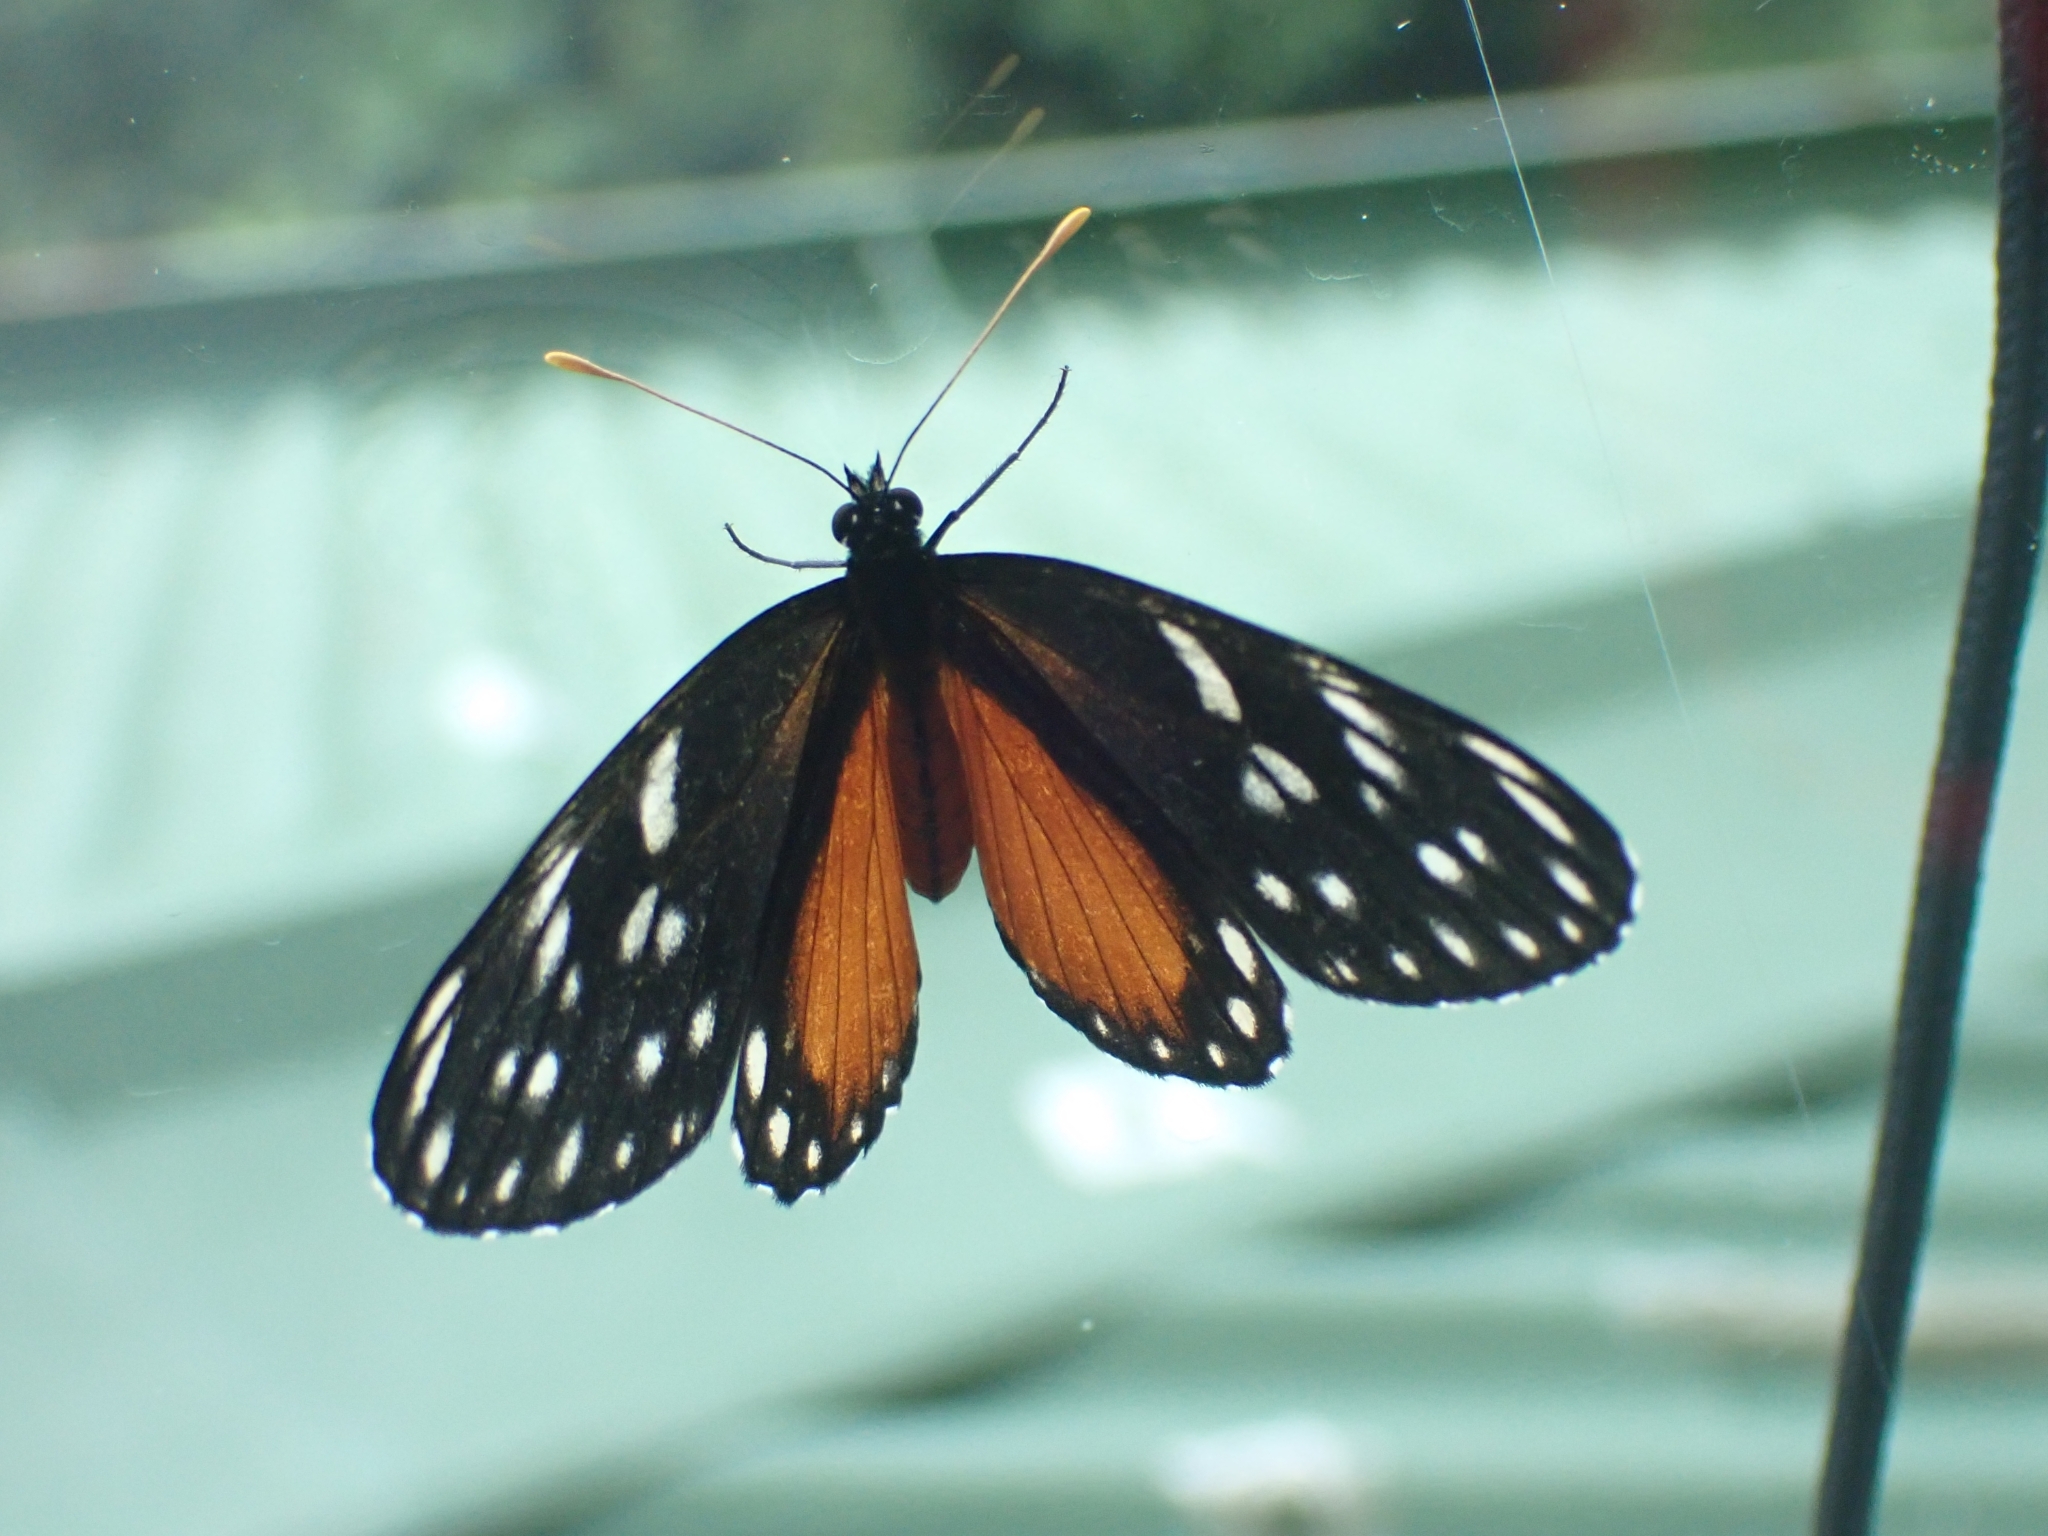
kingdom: Animalia
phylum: Arthropoda
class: Insecta
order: Lepidoptera
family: Nymphalidae
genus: Eresia
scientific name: Eresia sticta
